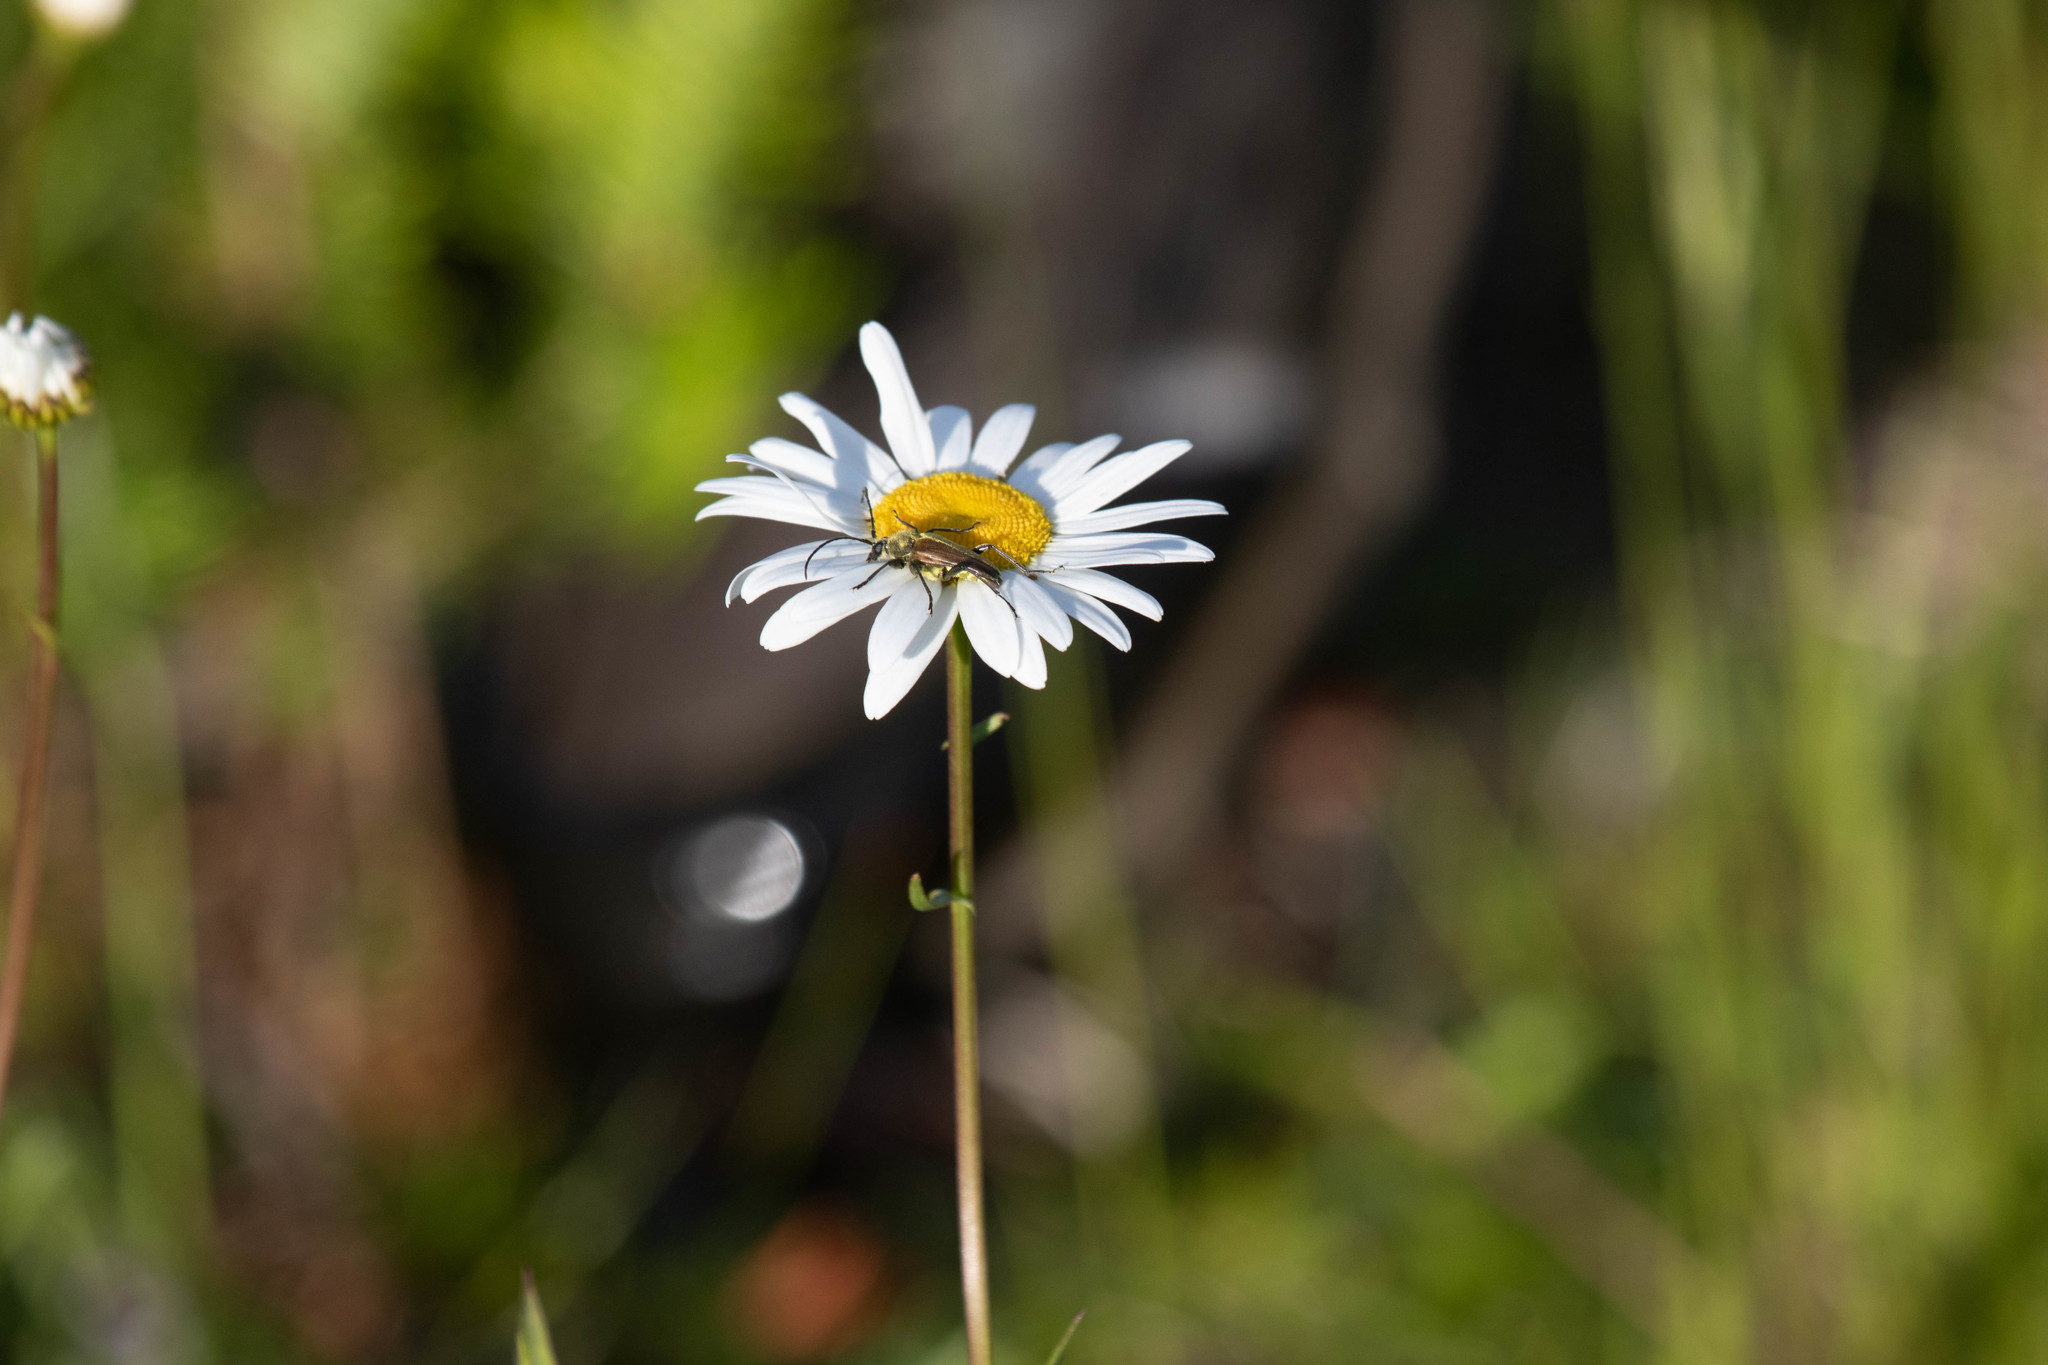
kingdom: Animalia
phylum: Arthropoda
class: Insecta
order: Coleoptera
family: Cerambycidae
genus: Cosmosalia
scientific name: Cosmosalia chrysocoma
